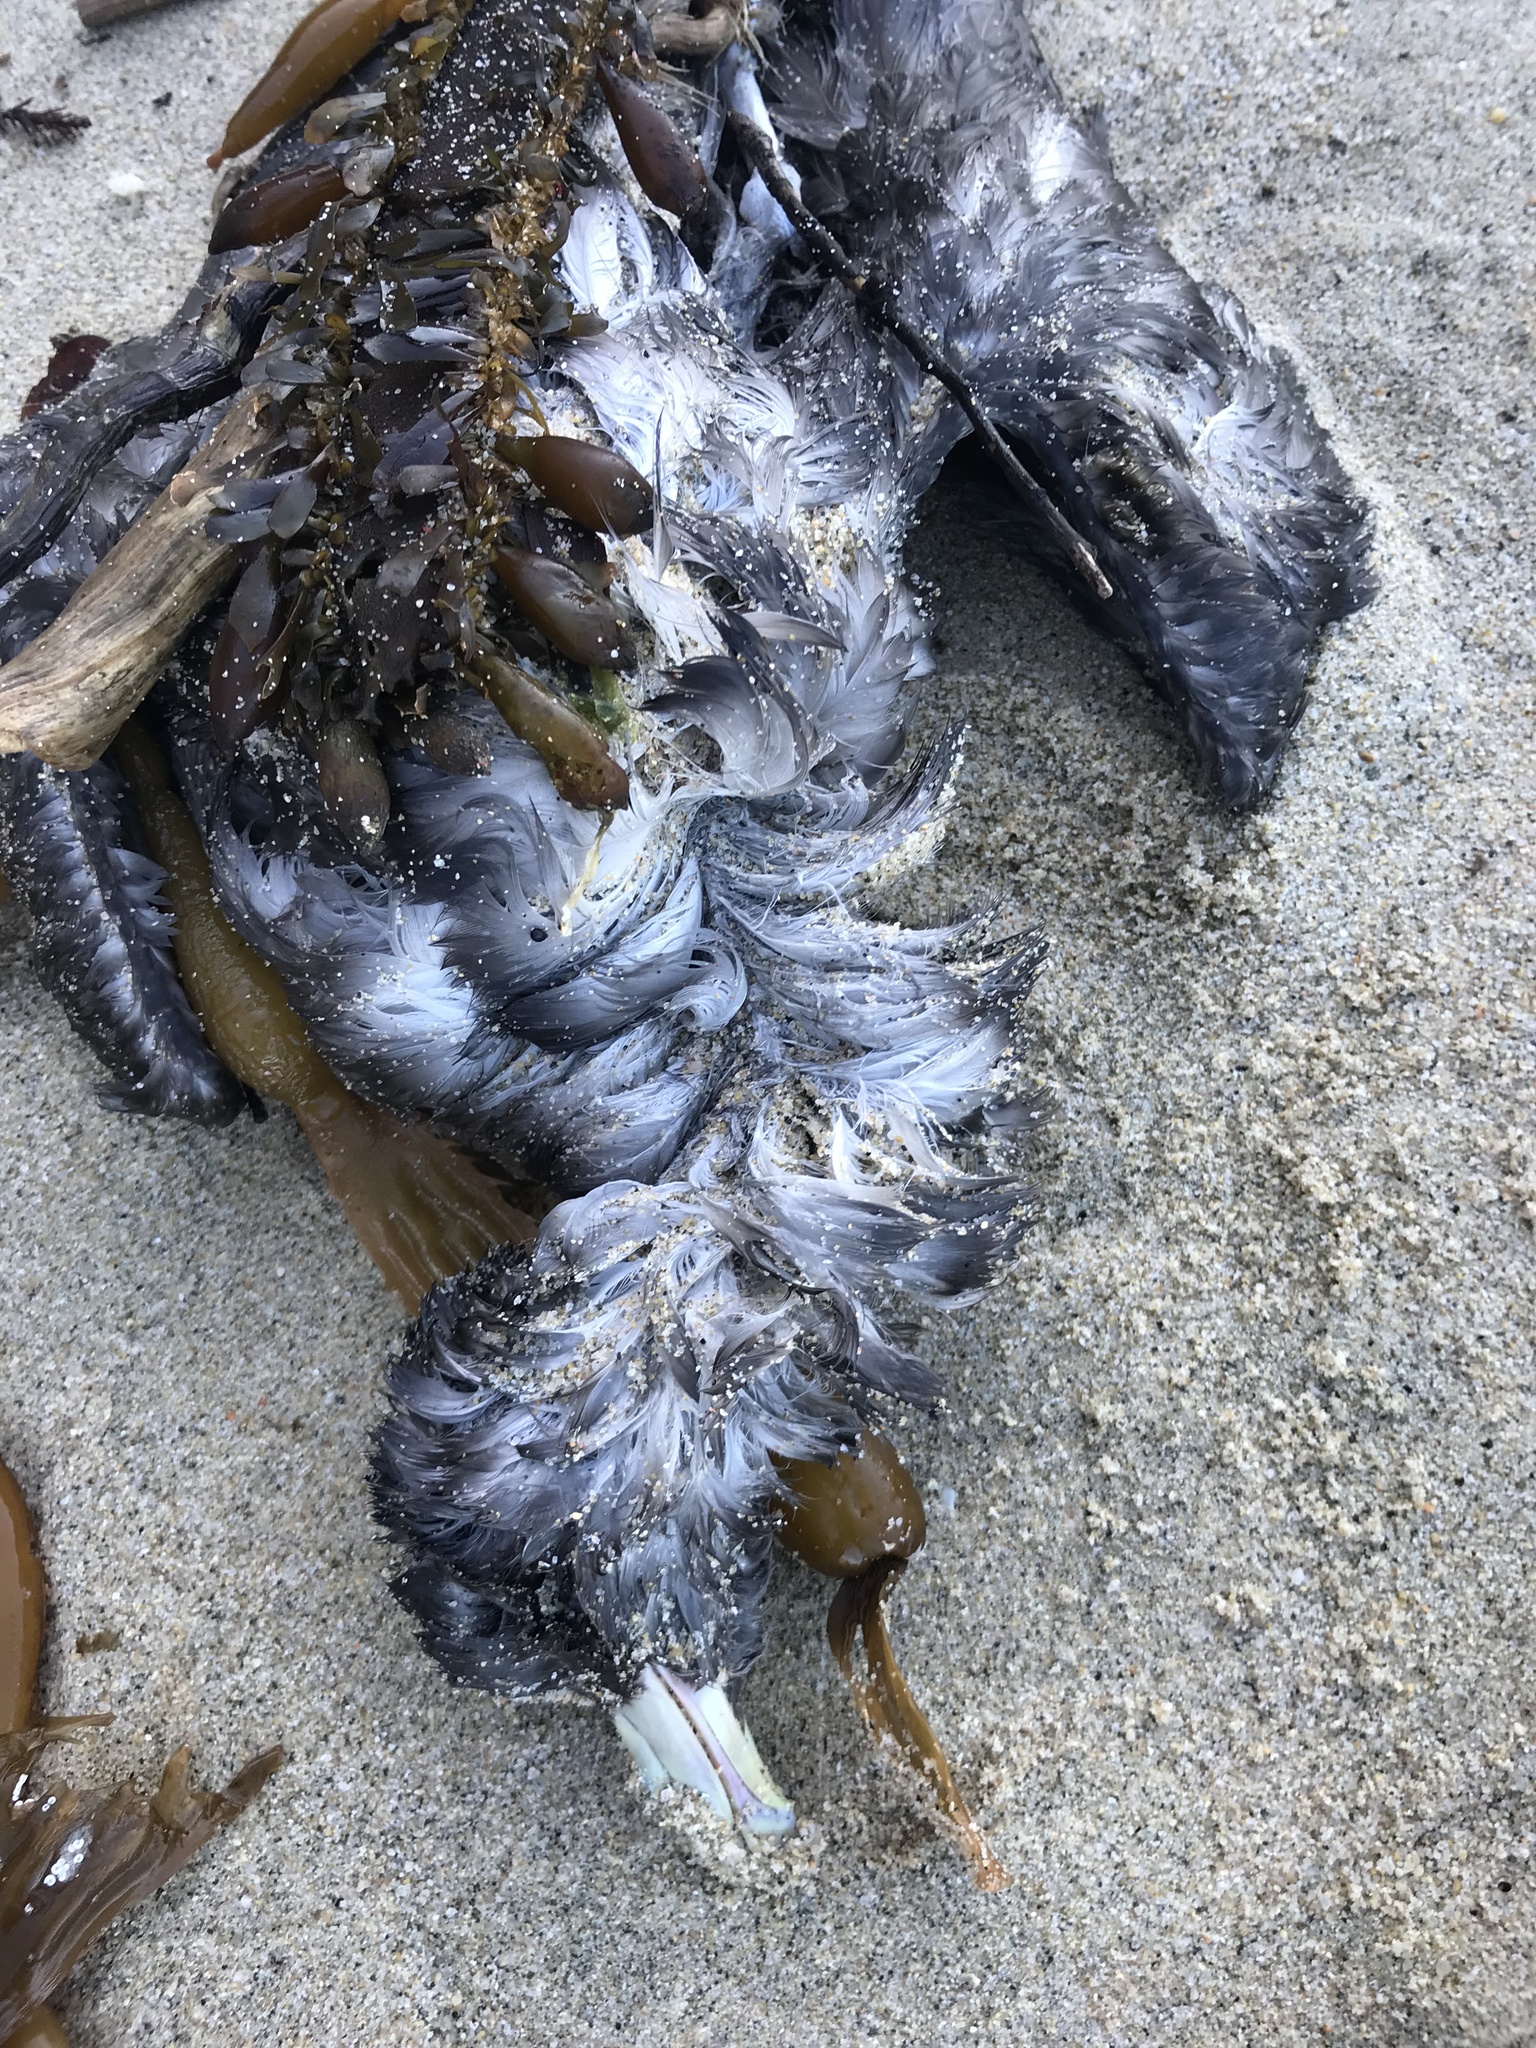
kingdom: Animalia
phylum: Chordata
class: Aves
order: Procellariiformes
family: Procellariidae
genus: Fulmarus
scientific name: Fulmarus glacialis
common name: Northern fulmar
